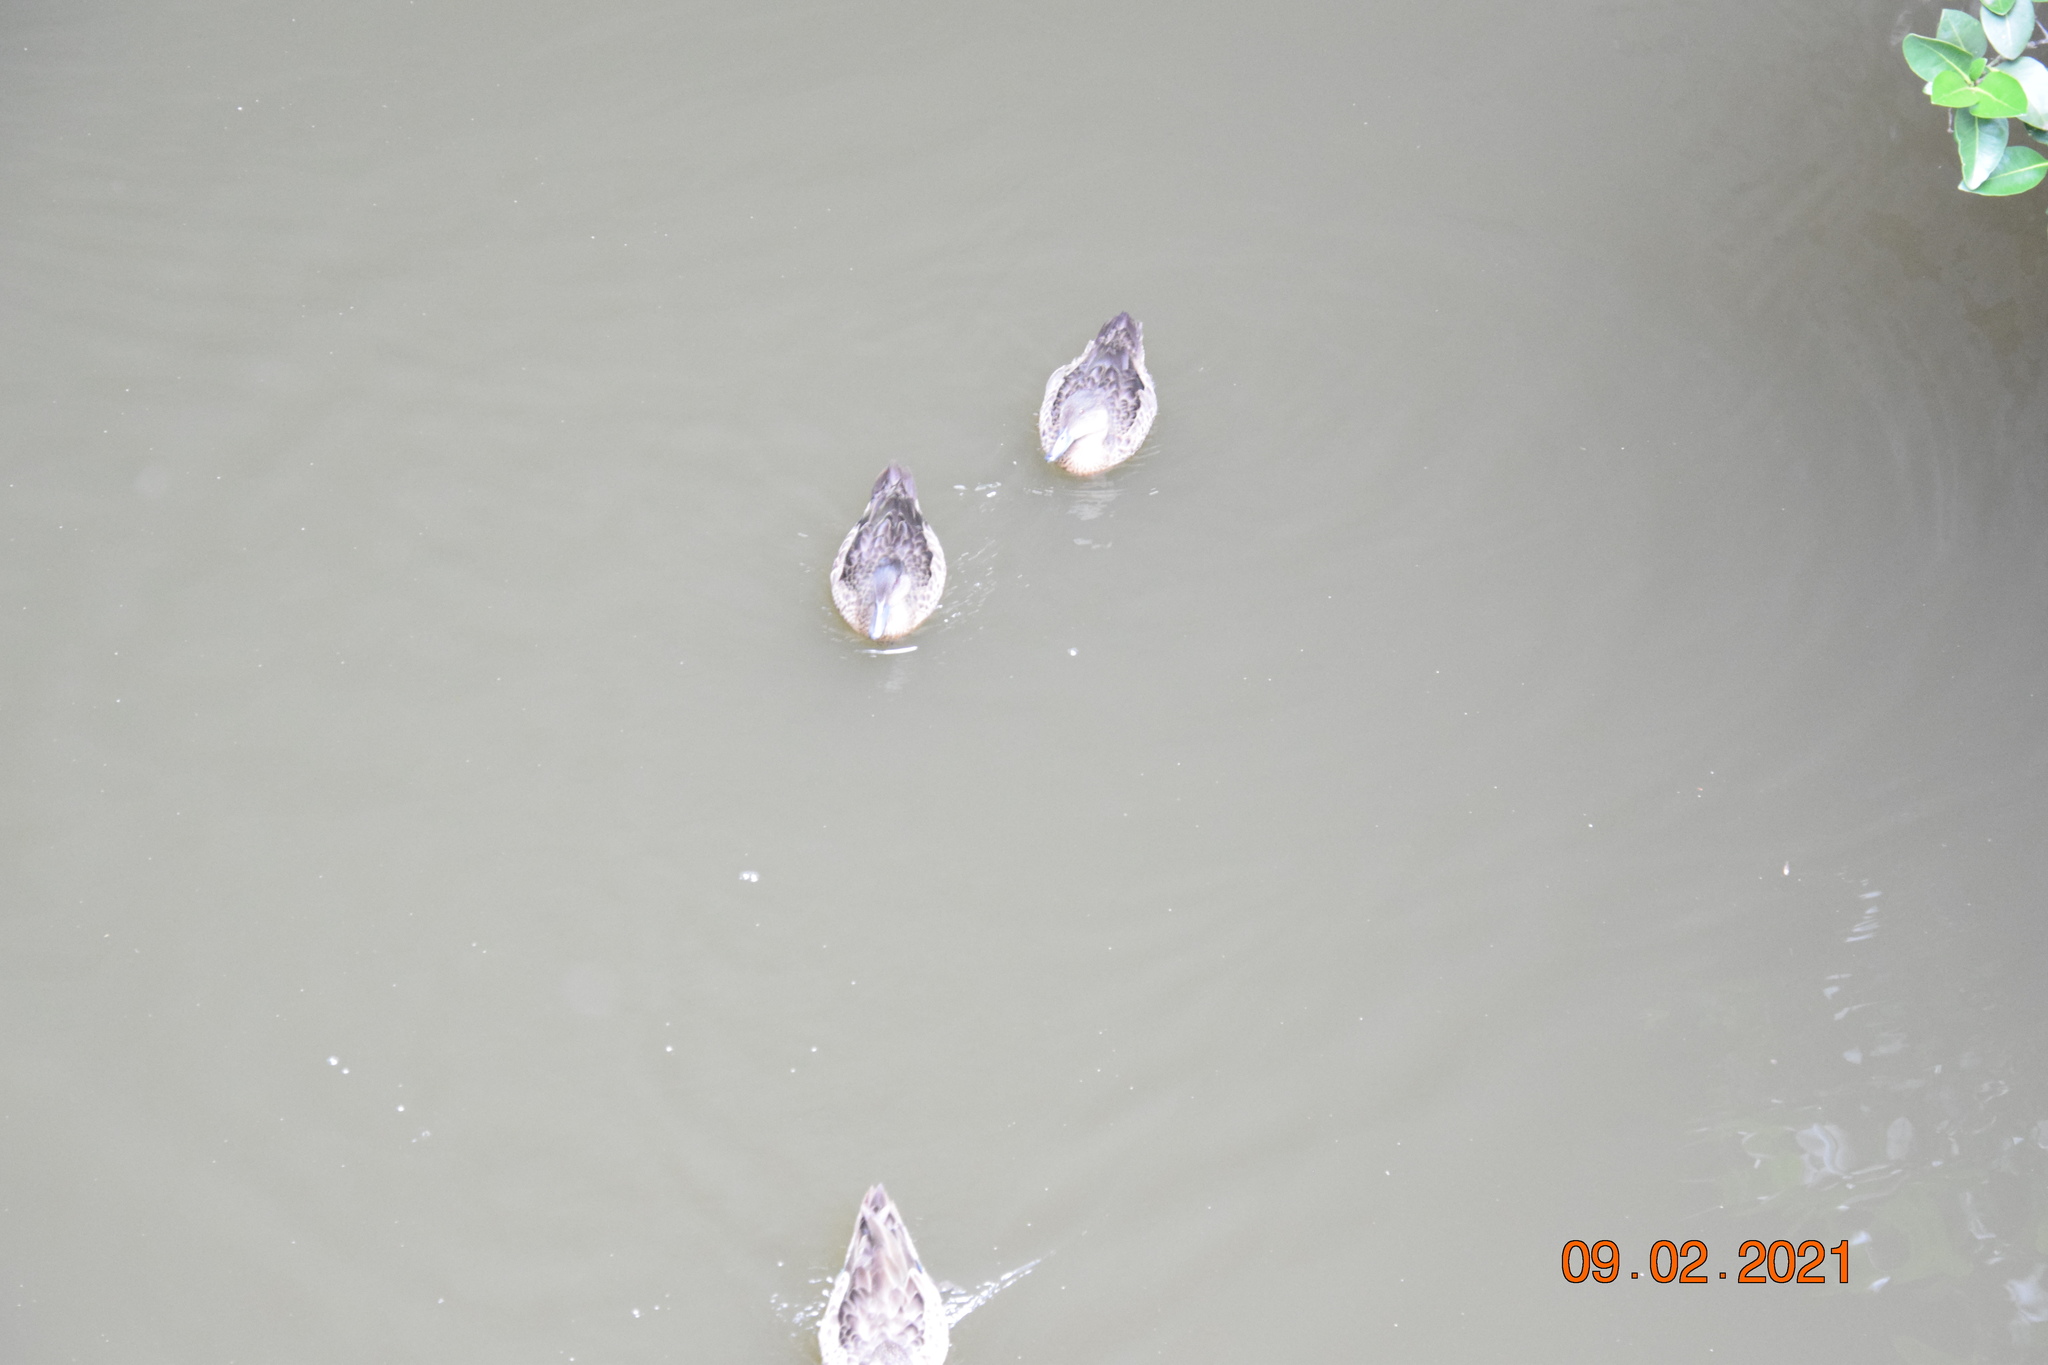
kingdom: Animalia
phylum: Chordata
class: Aves
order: Anseriformes
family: Anatidae
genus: Anas
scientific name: Anas castanea
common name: Chestnut teal
